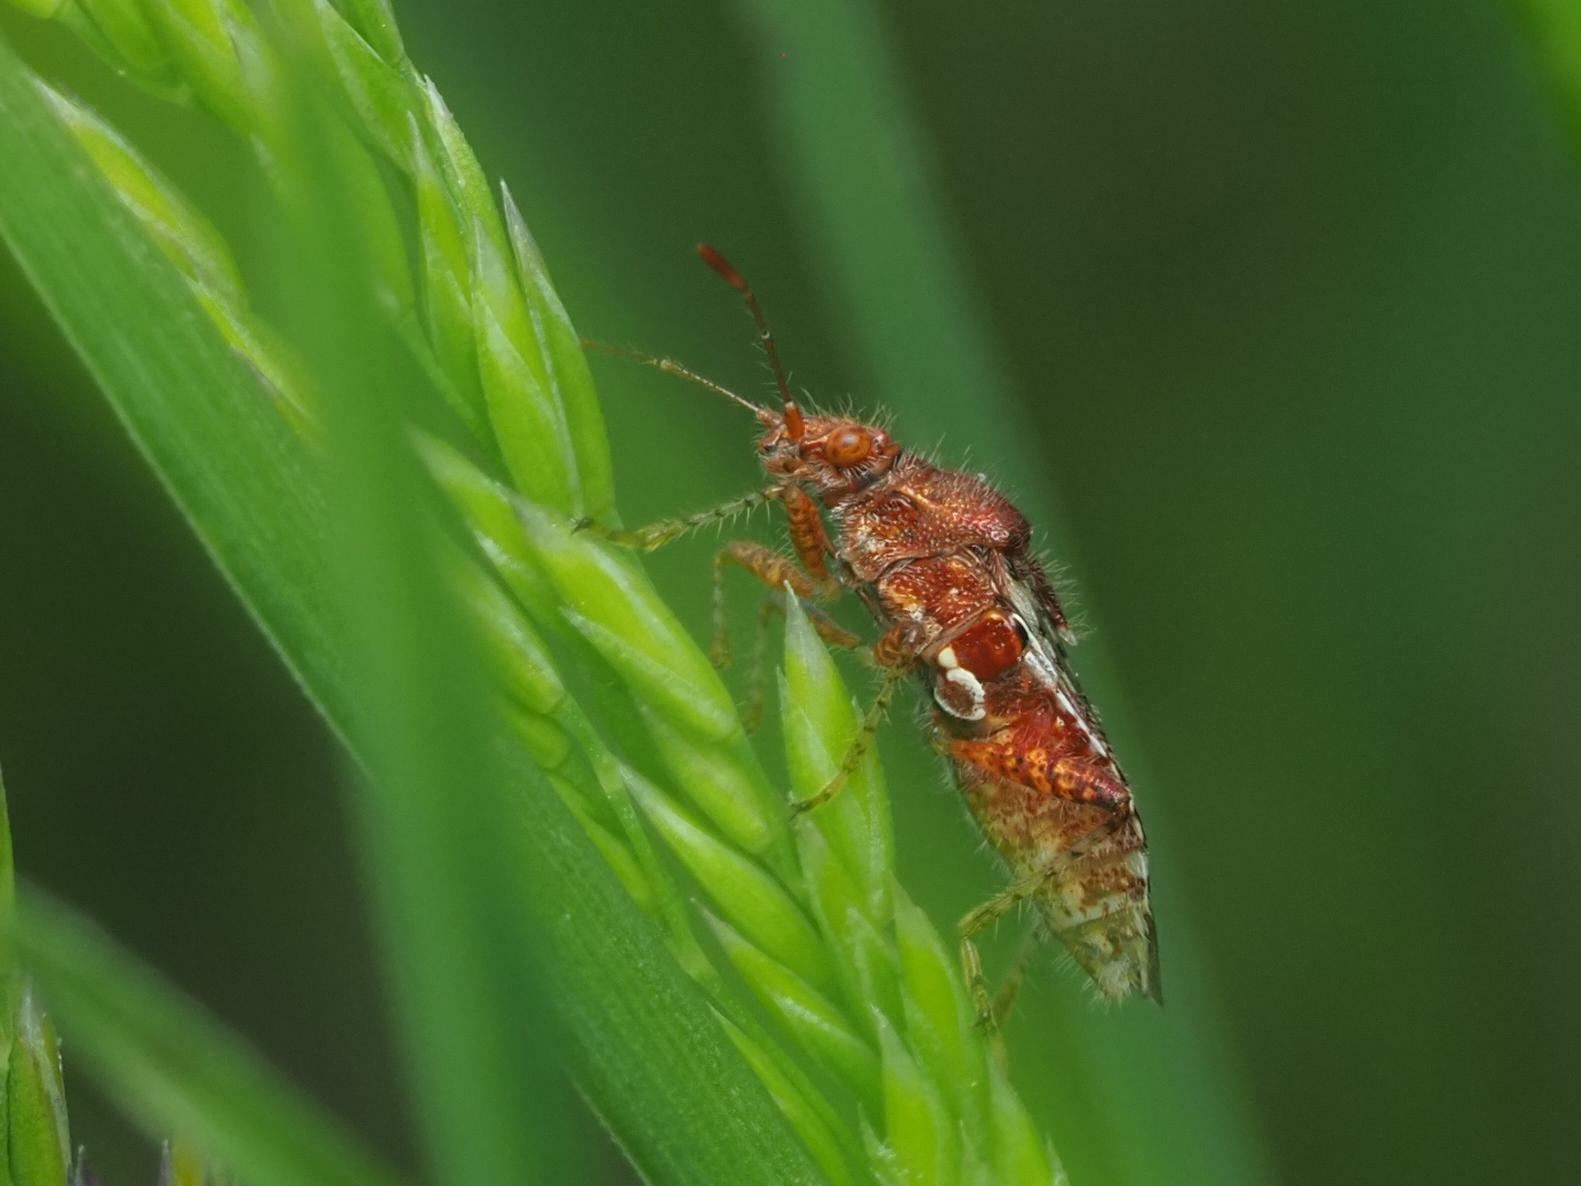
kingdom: Animalia
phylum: Arthropoda
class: Insecta
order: Hemiptera
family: Rhopalidae
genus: Rhopalus
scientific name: Rhopalus subrufus
